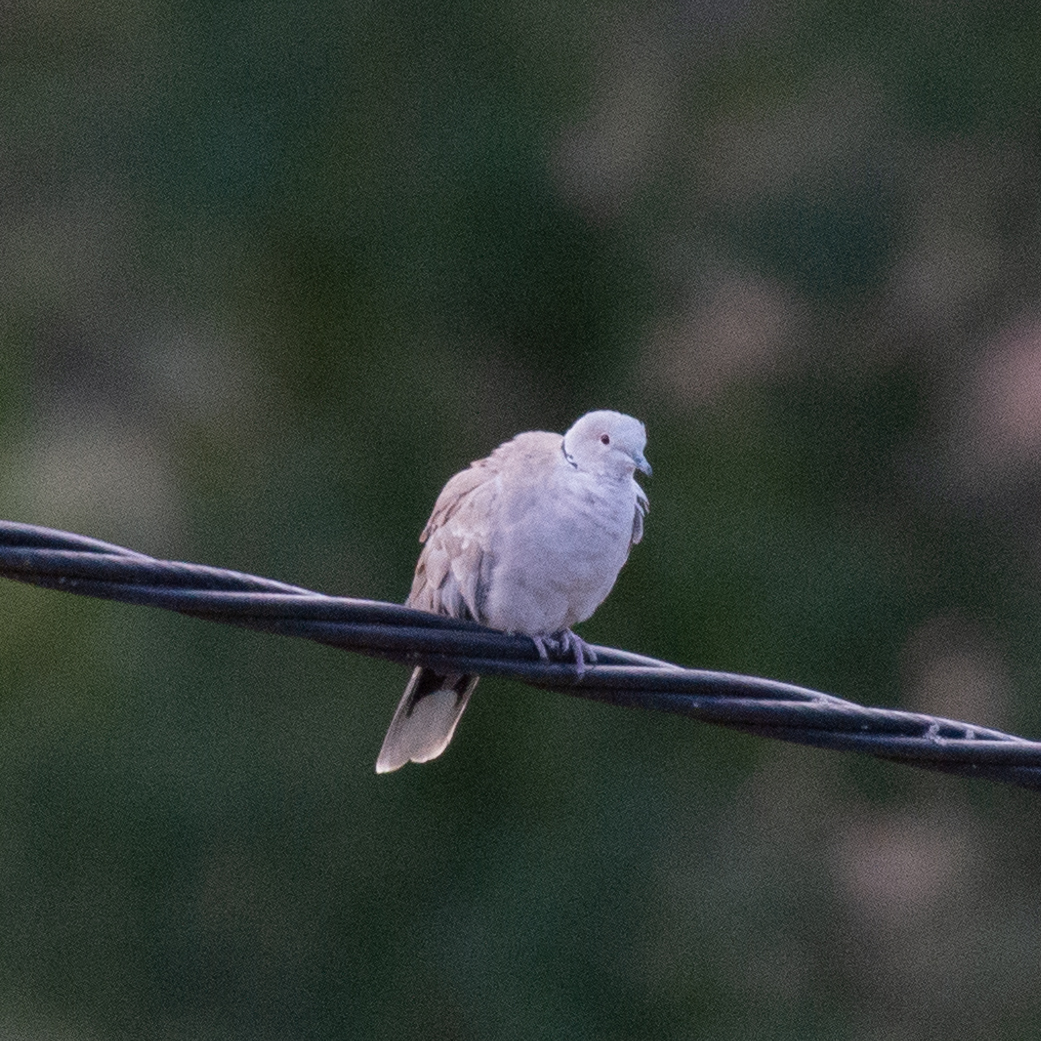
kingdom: Animalia
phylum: Chordata
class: Aves
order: Columbiformes
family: Columbidae
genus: Streptopelia
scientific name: Streptopelia decaocto
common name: Eurasian collared dove
